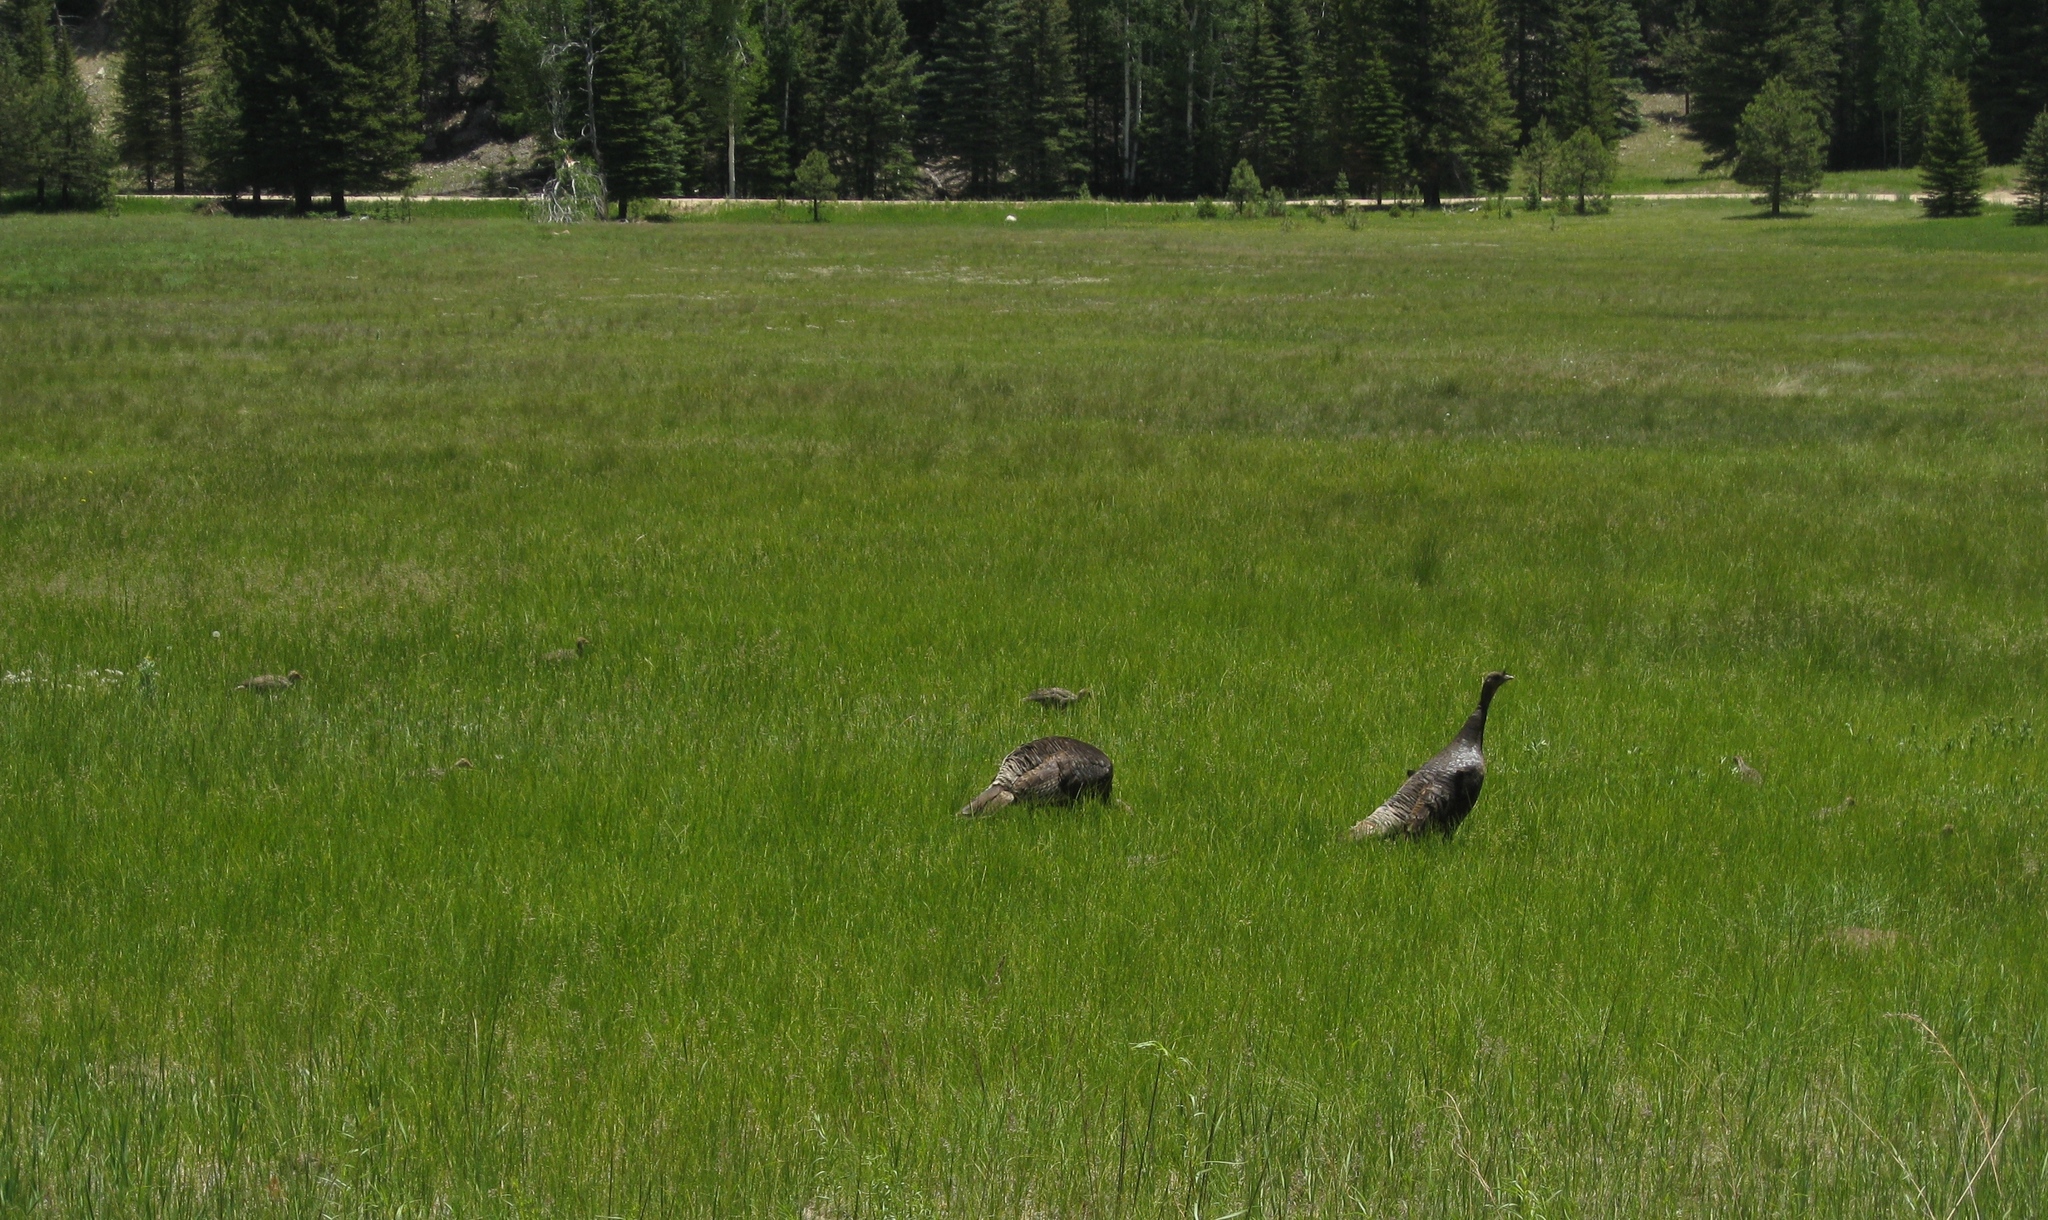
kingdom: Animalia
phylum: Chordata
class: Aves
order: Galliformes
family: Phasianidae
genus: Meleagris
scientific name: Meleagris gallopavo
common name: Wild turkey
